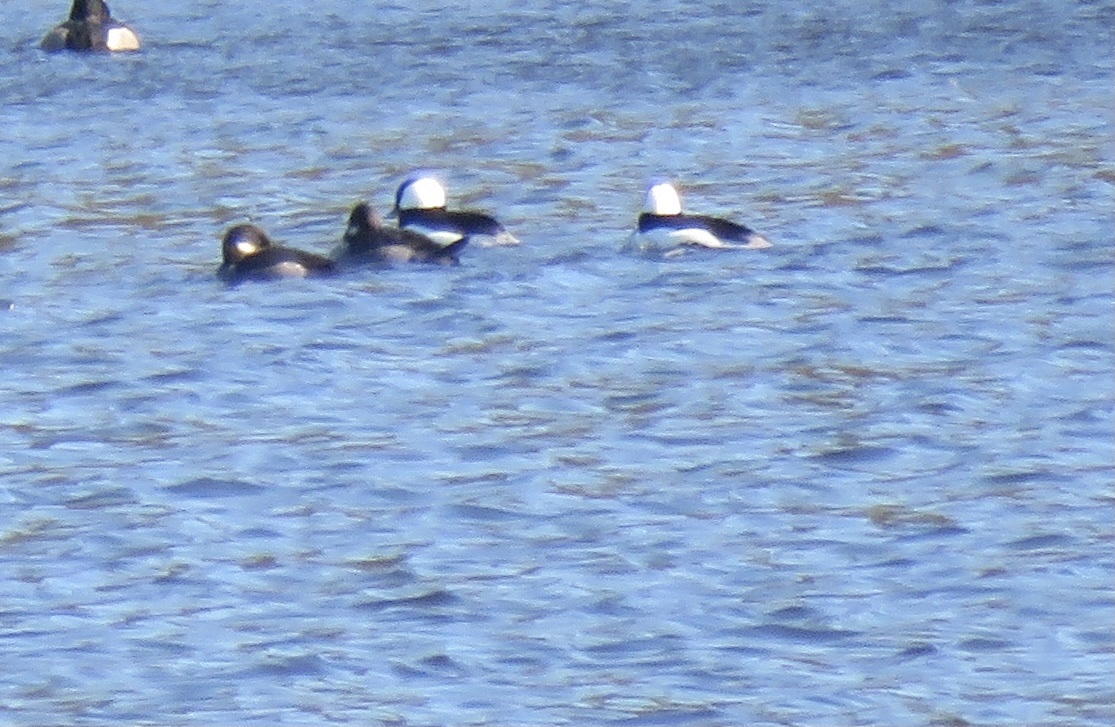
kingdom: Animalia
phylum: Chordata
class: Aves
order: Anseriformes
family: Anatidae
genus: Bucephala
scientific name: Bucephala albeola
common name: Bufflehead
